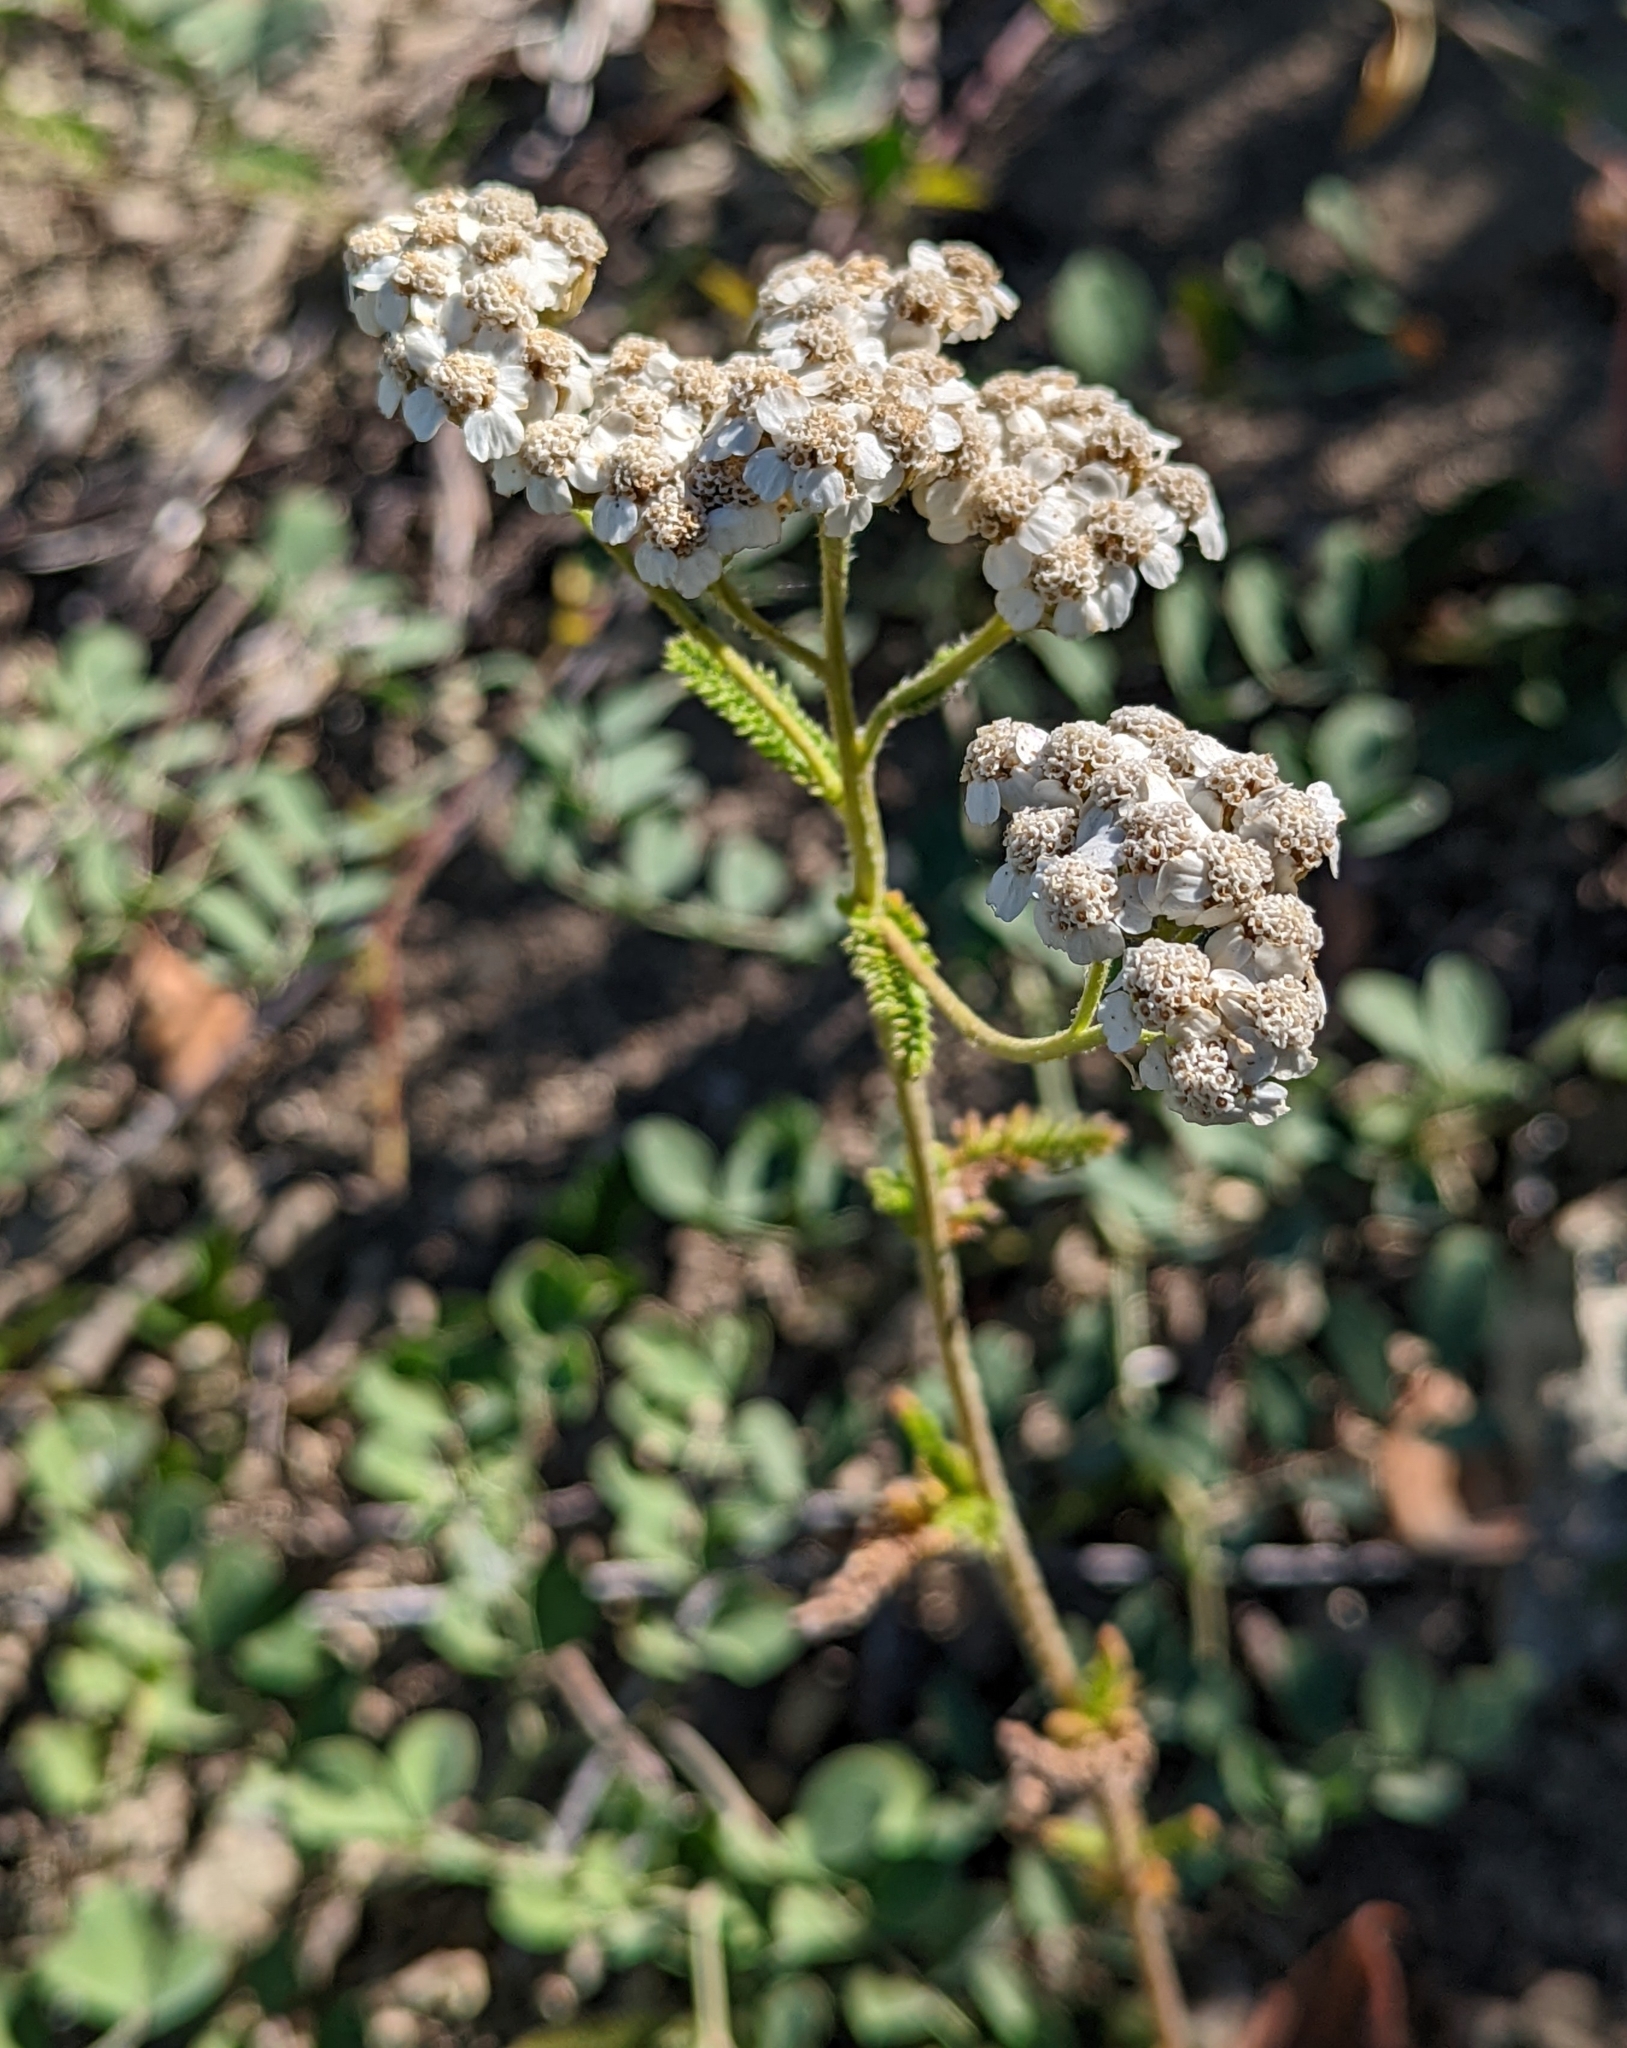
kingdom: Plantae
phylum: Tracheophyta
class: Magnoliopsida
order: Asterales
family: Asteraceae
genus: Achillea
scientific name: Achillea millefolium
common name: Yarrow
